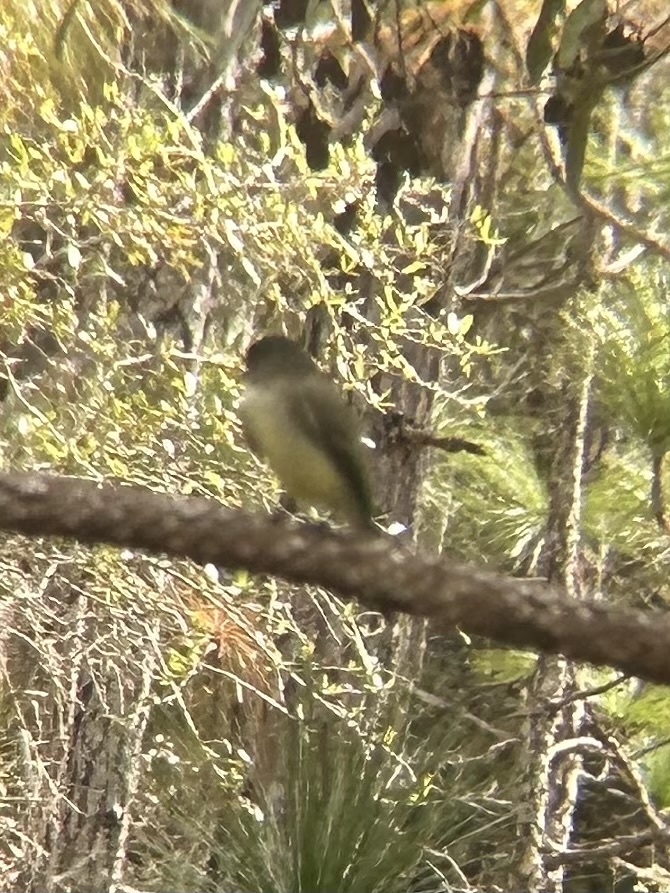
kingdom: Animalia
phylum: Chordata
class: Aves
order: Passeriformes
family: Tyrannidae
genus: Sayornis
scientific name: Sayornis phoebe
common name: Eastern phoebe
